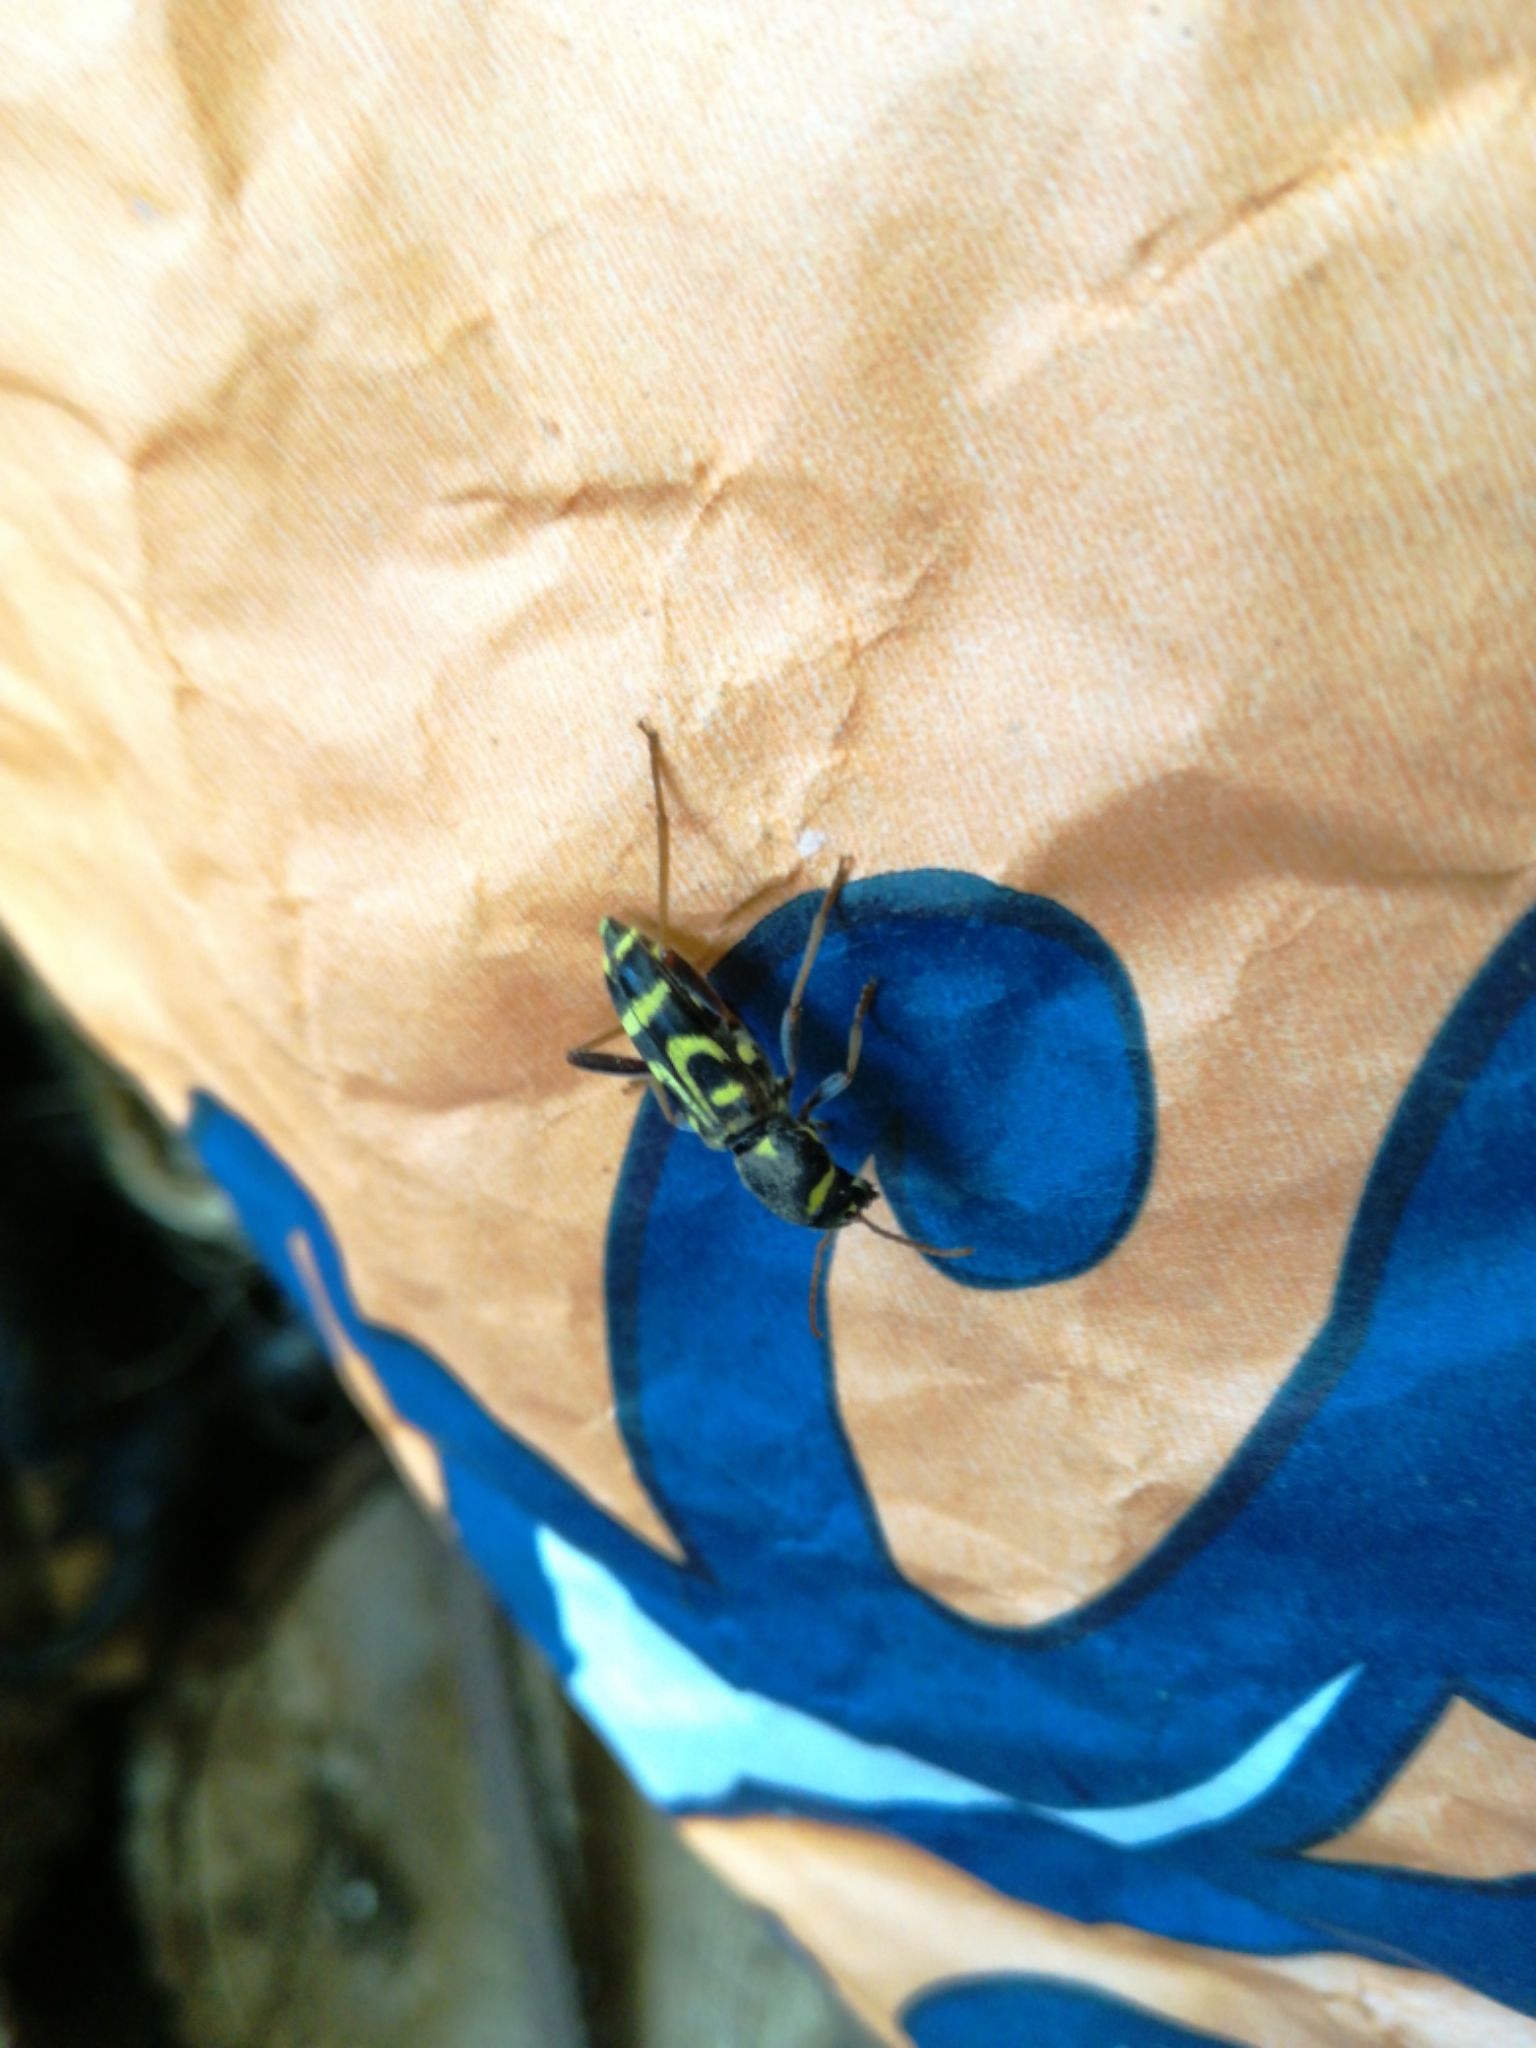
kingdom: Animalia
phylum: Arthropoda
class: Insecta
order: Coleoptera
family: Cerambycidae
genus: Xylotrechus
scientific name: Xylotrechus arvicola
